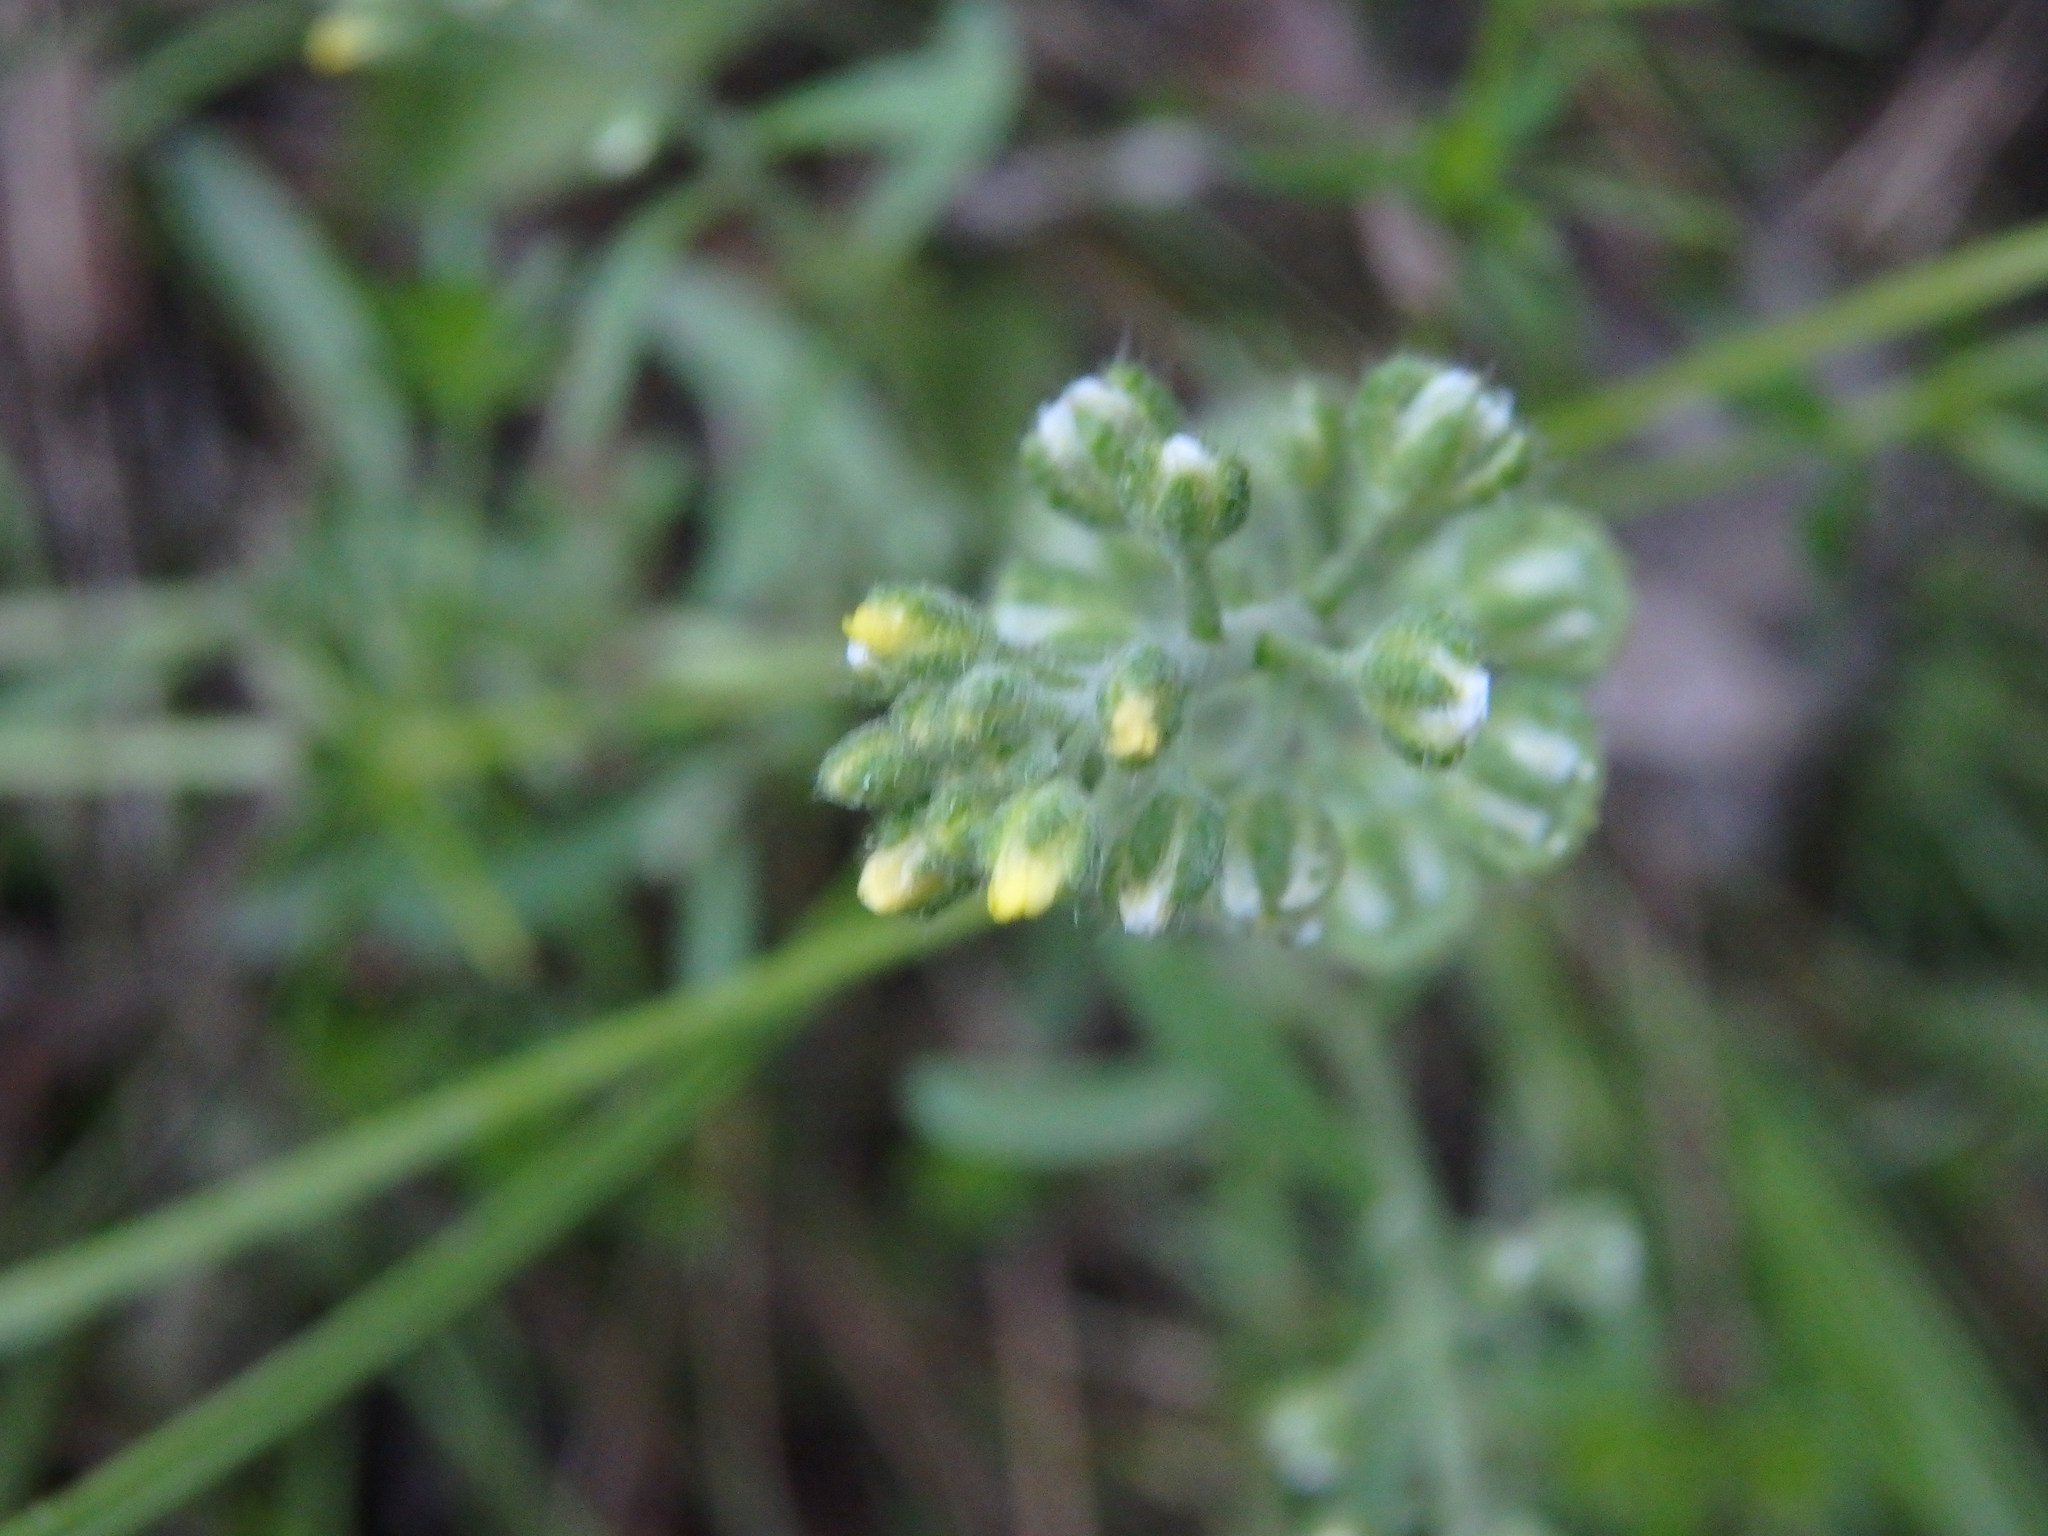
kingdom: Plantae
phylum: Tracheophyta
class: Magnoliopsida
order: Brassicales
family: Brassicaceae
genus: Alyssum
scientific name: Alyssum alyssoides
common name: Small alison
